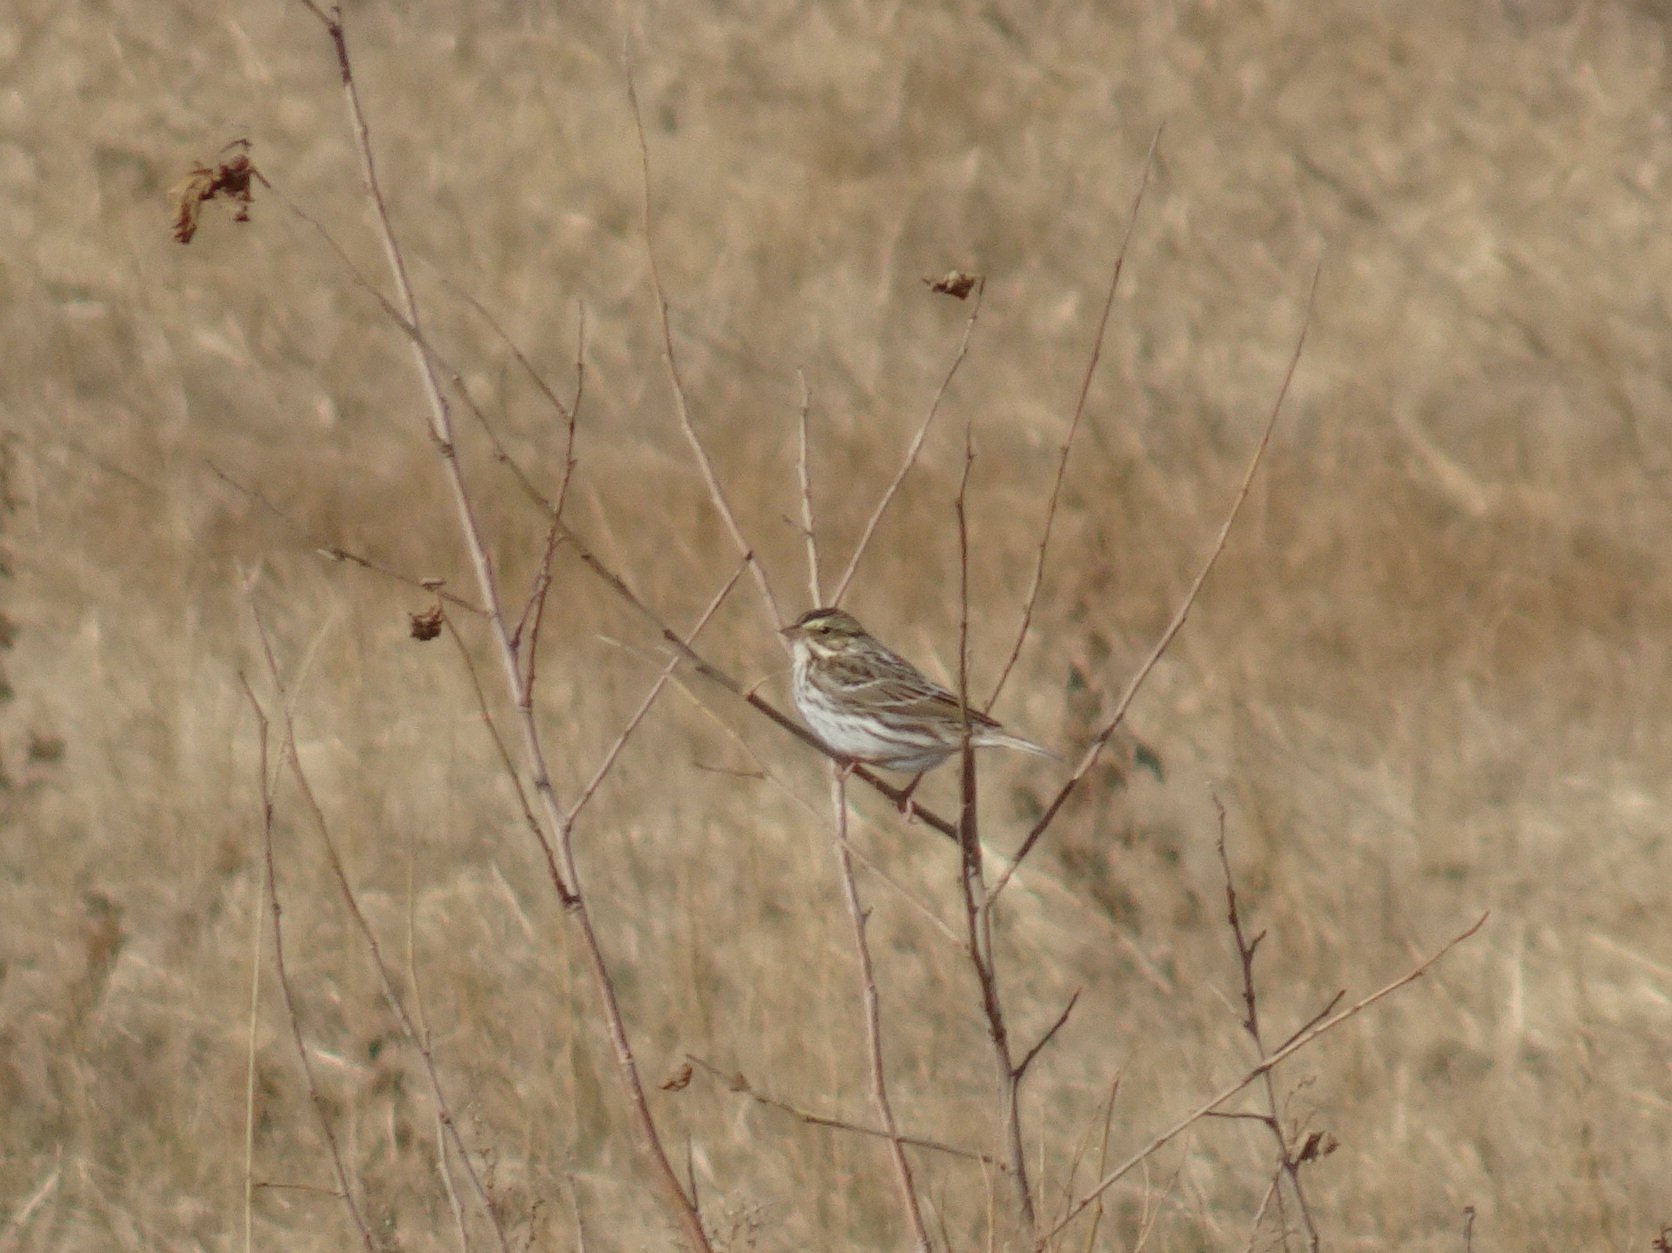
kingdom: Animalia
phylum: Chordata
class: Aves
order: Passeriformes
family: Passerellidae
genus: Passerculus
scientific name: Passerculus sandwichensis
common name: Savannah sparrow
